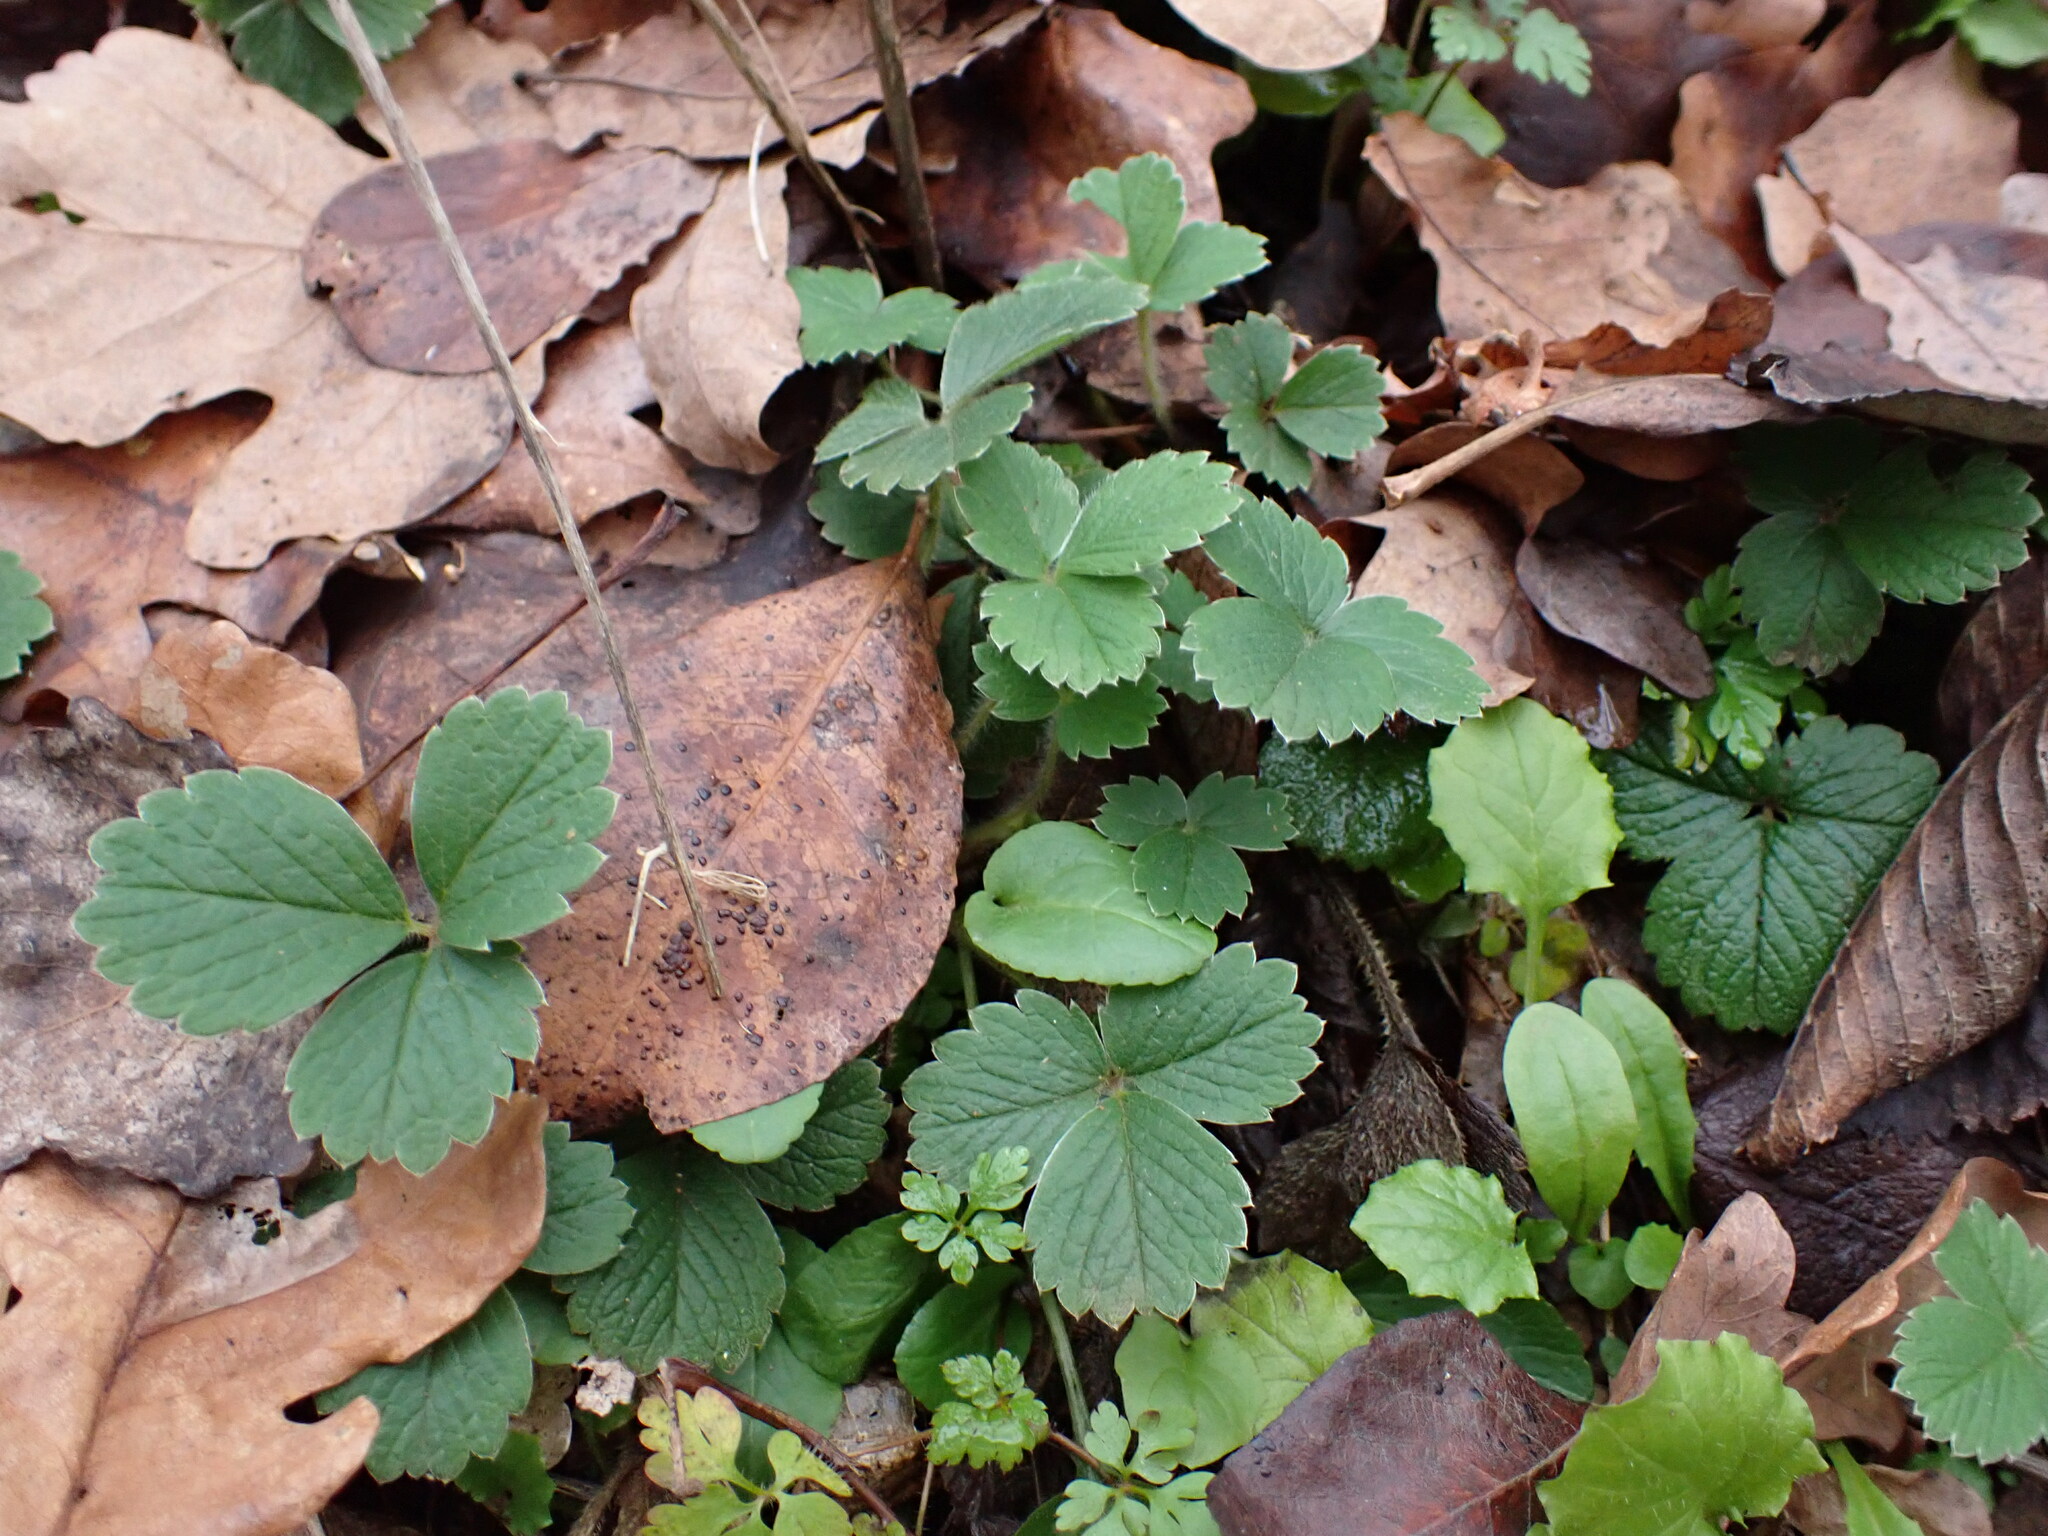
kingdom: Plantae
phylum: Tracheophyta
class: Magnoliopsida
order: Rosales
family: Rosaceae
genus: Potentilla
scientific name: Potentilla sterilis
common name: Barren strawberry
